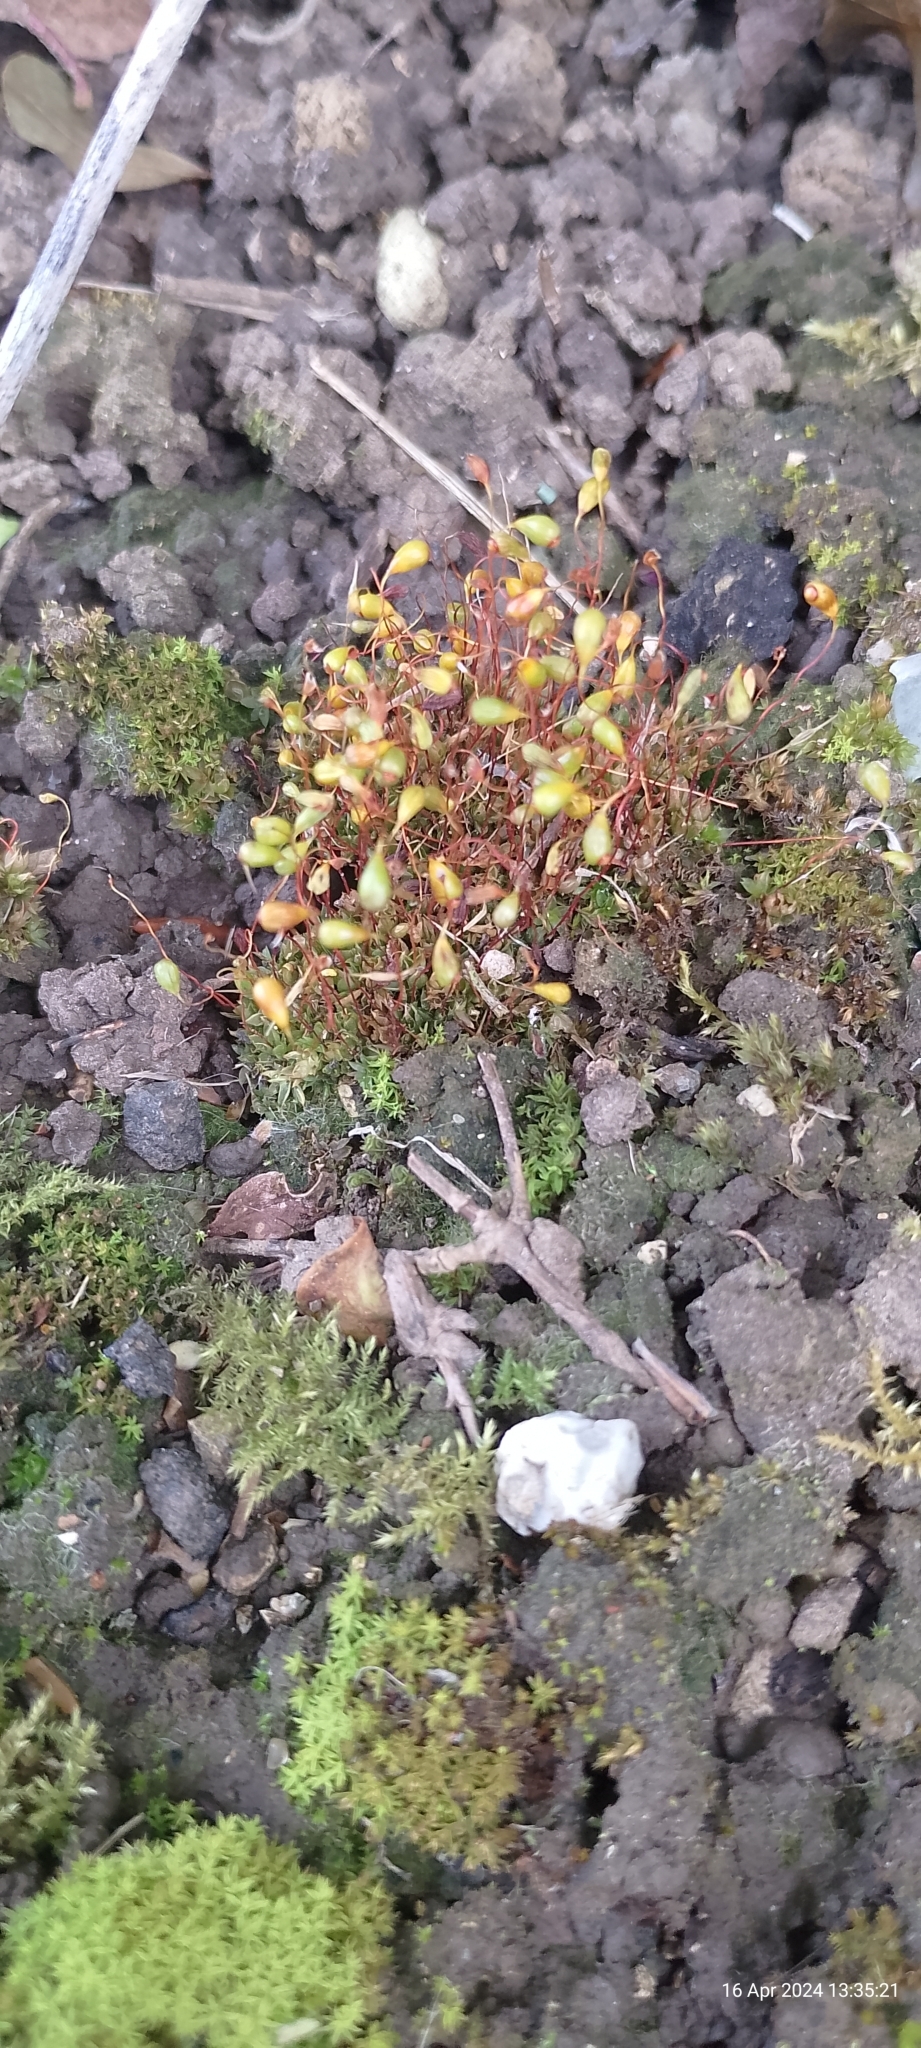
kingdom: Plantae
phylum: Bryophyta
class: Bryopsida
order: Funariales
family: Funariaceae
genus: Funaria
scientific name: Funaria hygrometrica
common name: Common cord moss
